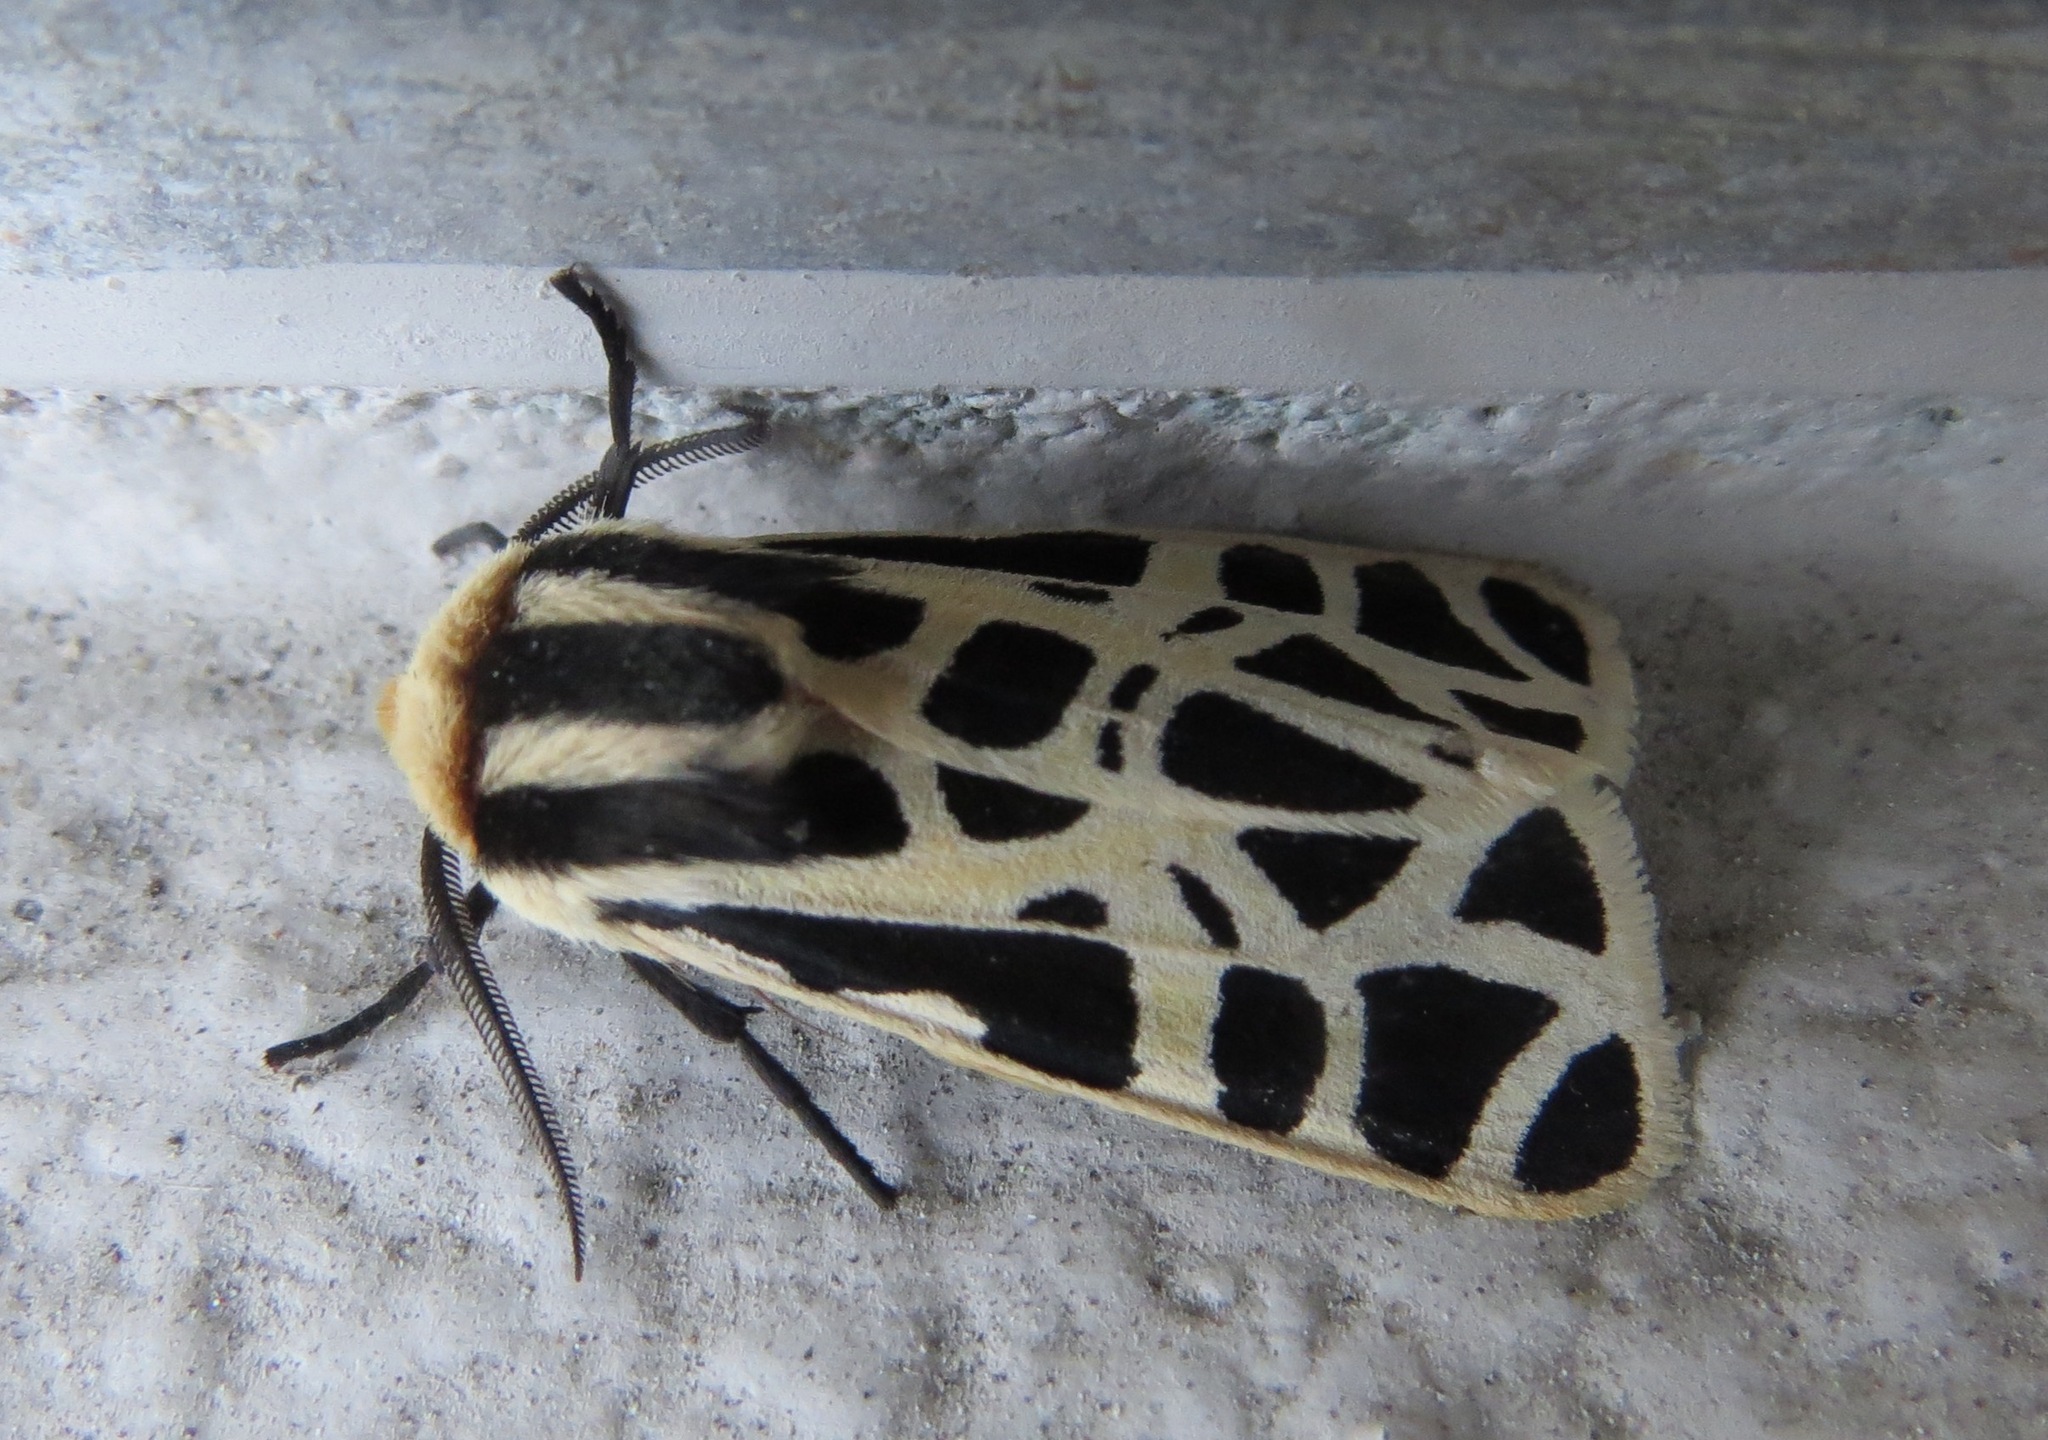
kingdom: Animalia
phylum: Arthropoda
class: Insecta
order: Lepidoptera
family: Erebidae
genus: Apantesis
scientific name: Apantesis
